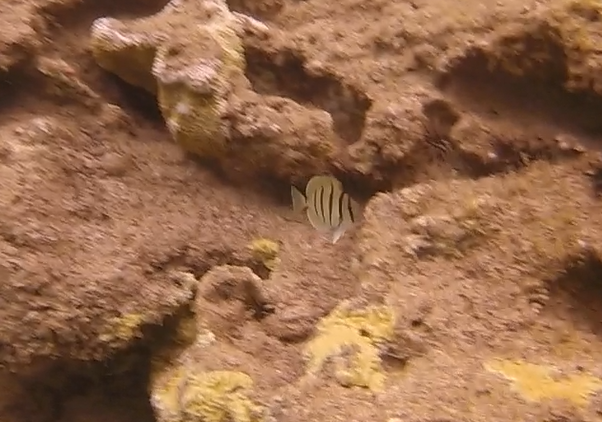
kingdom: Animalia
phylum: Chordata
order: Perciformes
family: Acanthuridae
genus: Acanthurus
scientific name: Acanthurus triostegus
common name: Convict surgeonfish
